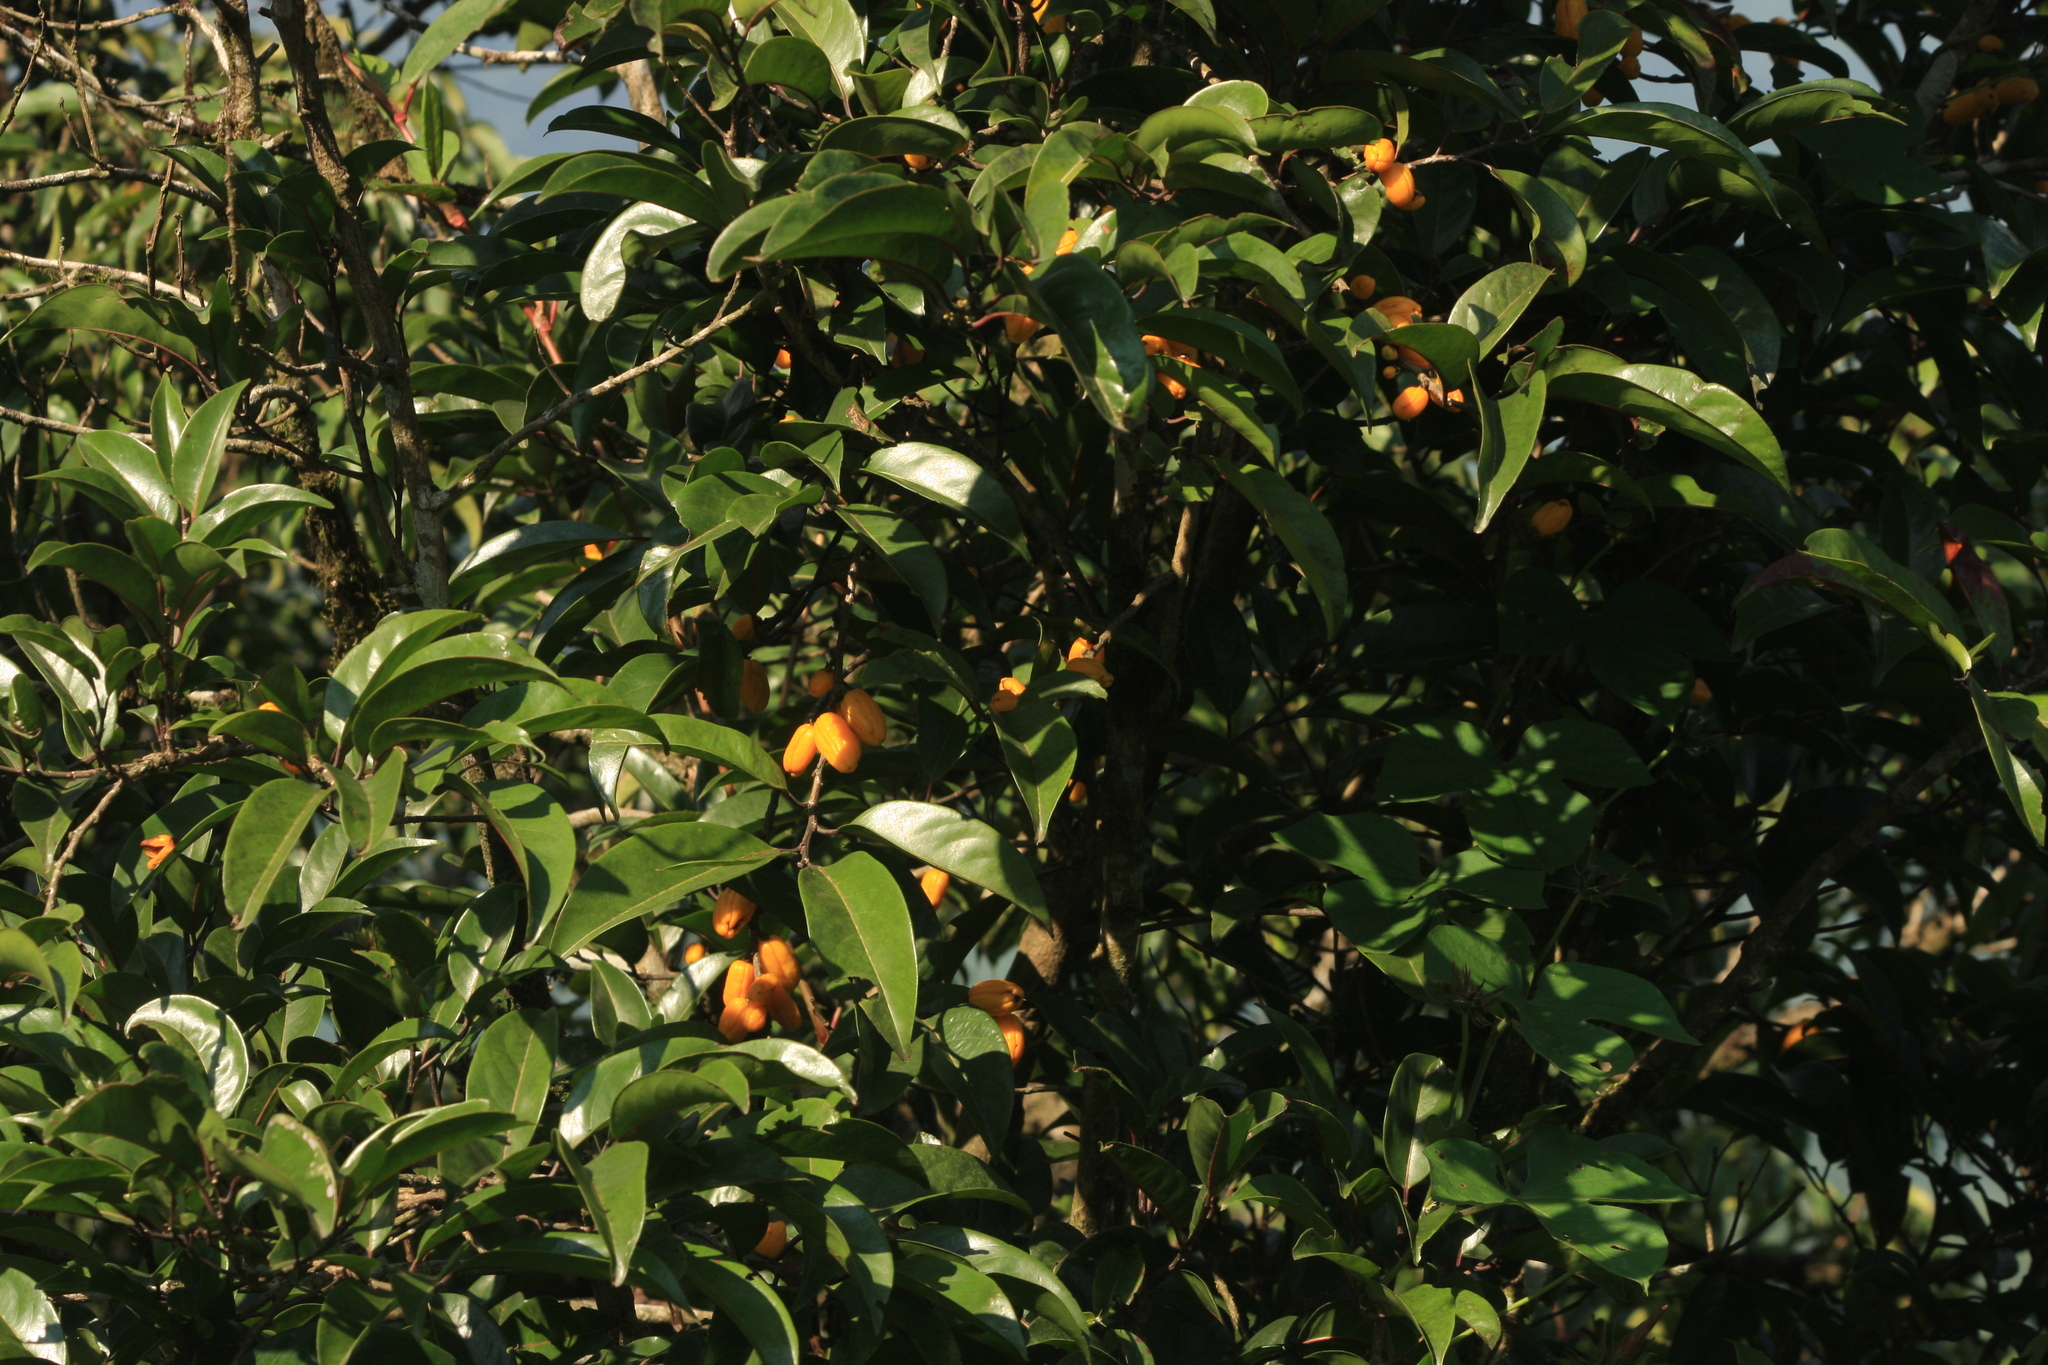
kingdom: Plantae
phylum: Tracheophyta
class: Magnoliopsida
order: Malpighiales
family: Salicaceae
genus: Casearia
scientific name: Casearia rubescens
